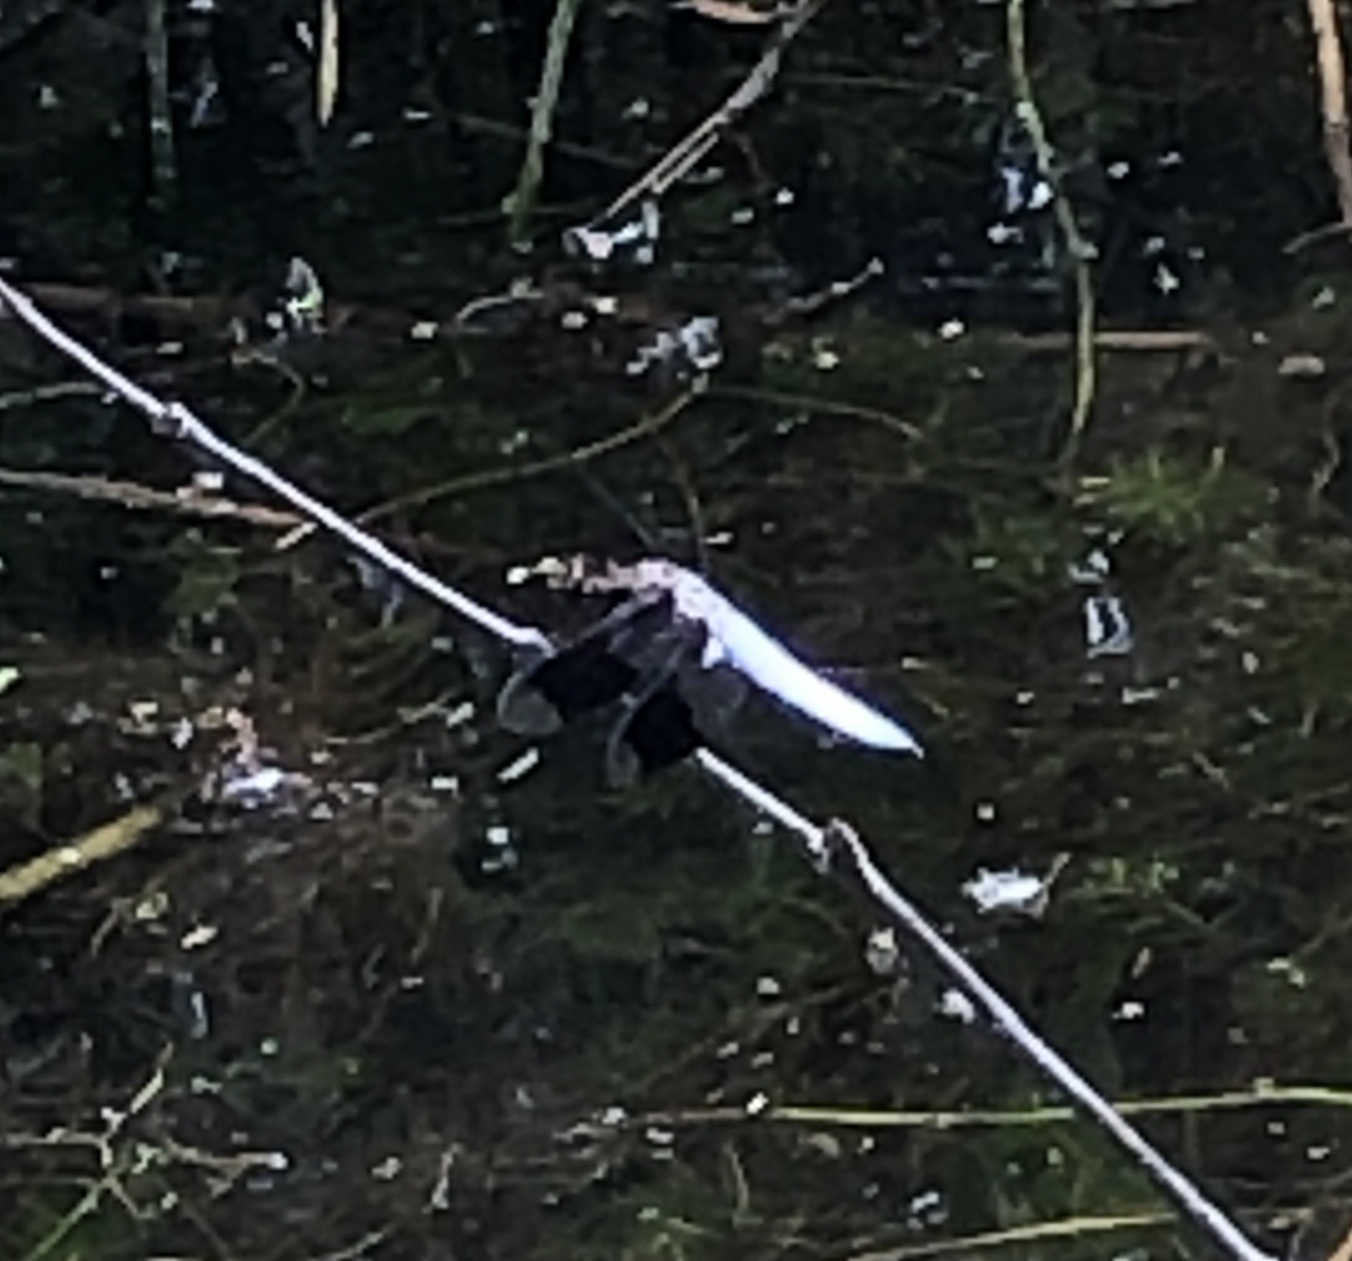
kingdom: Animalia
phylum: Arthropoda
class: Insecta
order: Odonata
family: Libellulidae
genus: Plathemis
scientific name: Plathemis lydia
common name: Common whitetail
